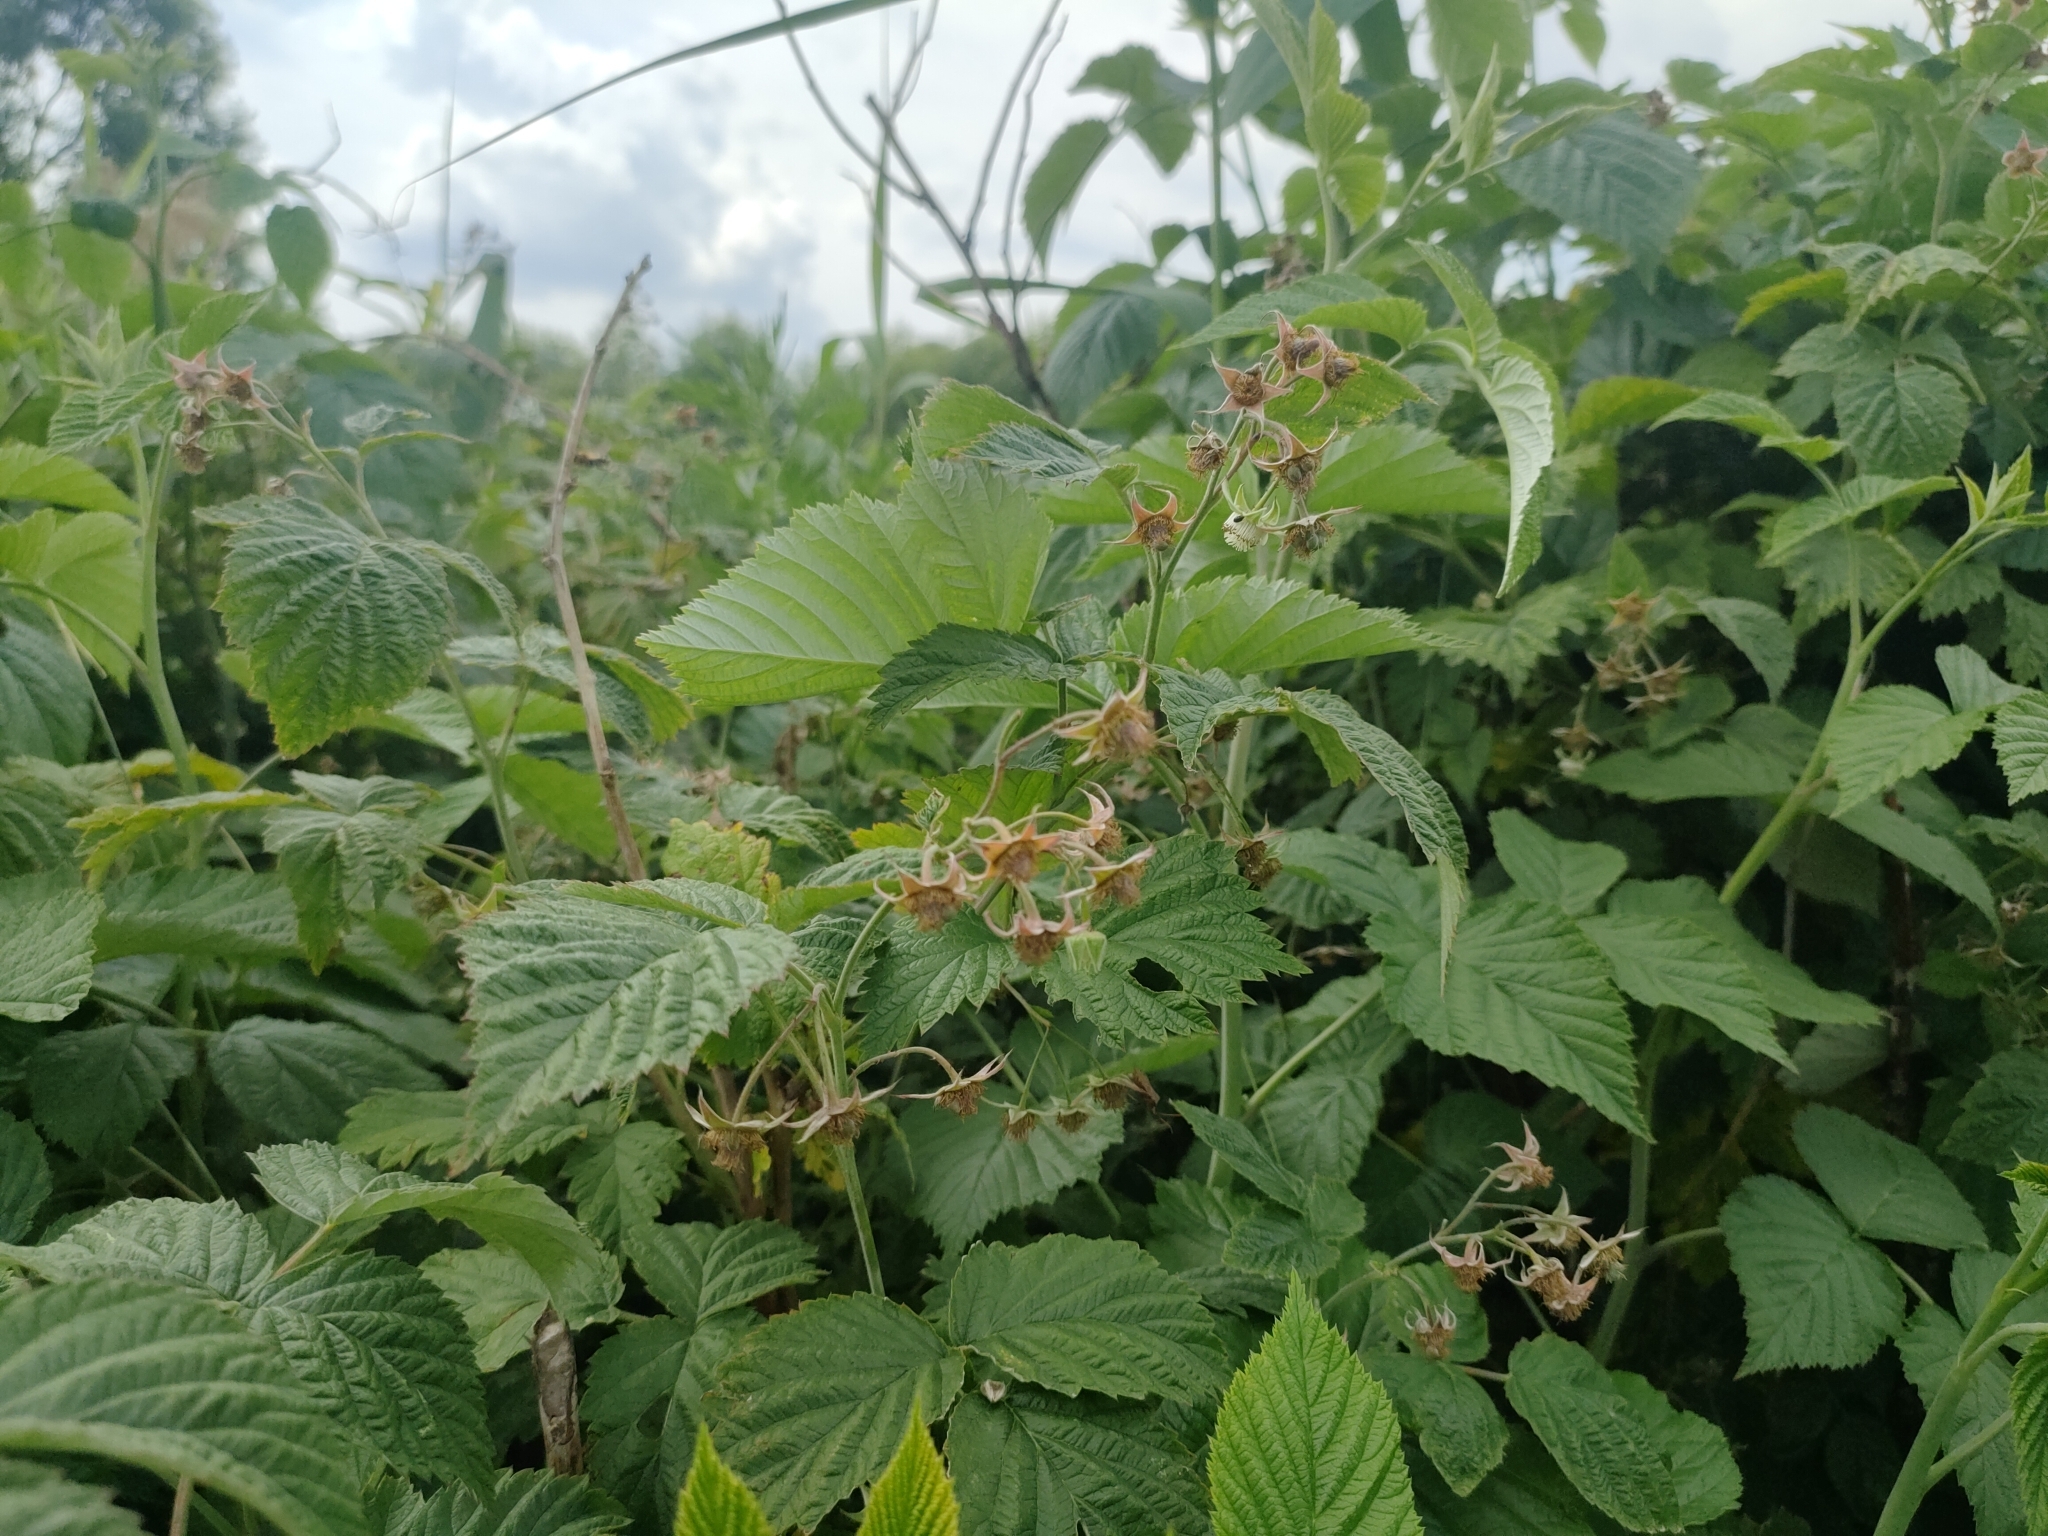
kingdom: Plantae
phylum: Tracheophyta
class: Magnoliopsida
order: Rosales
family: Rosaceae
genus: Rubus
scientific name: Rubus idaeus
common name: Raspberry
